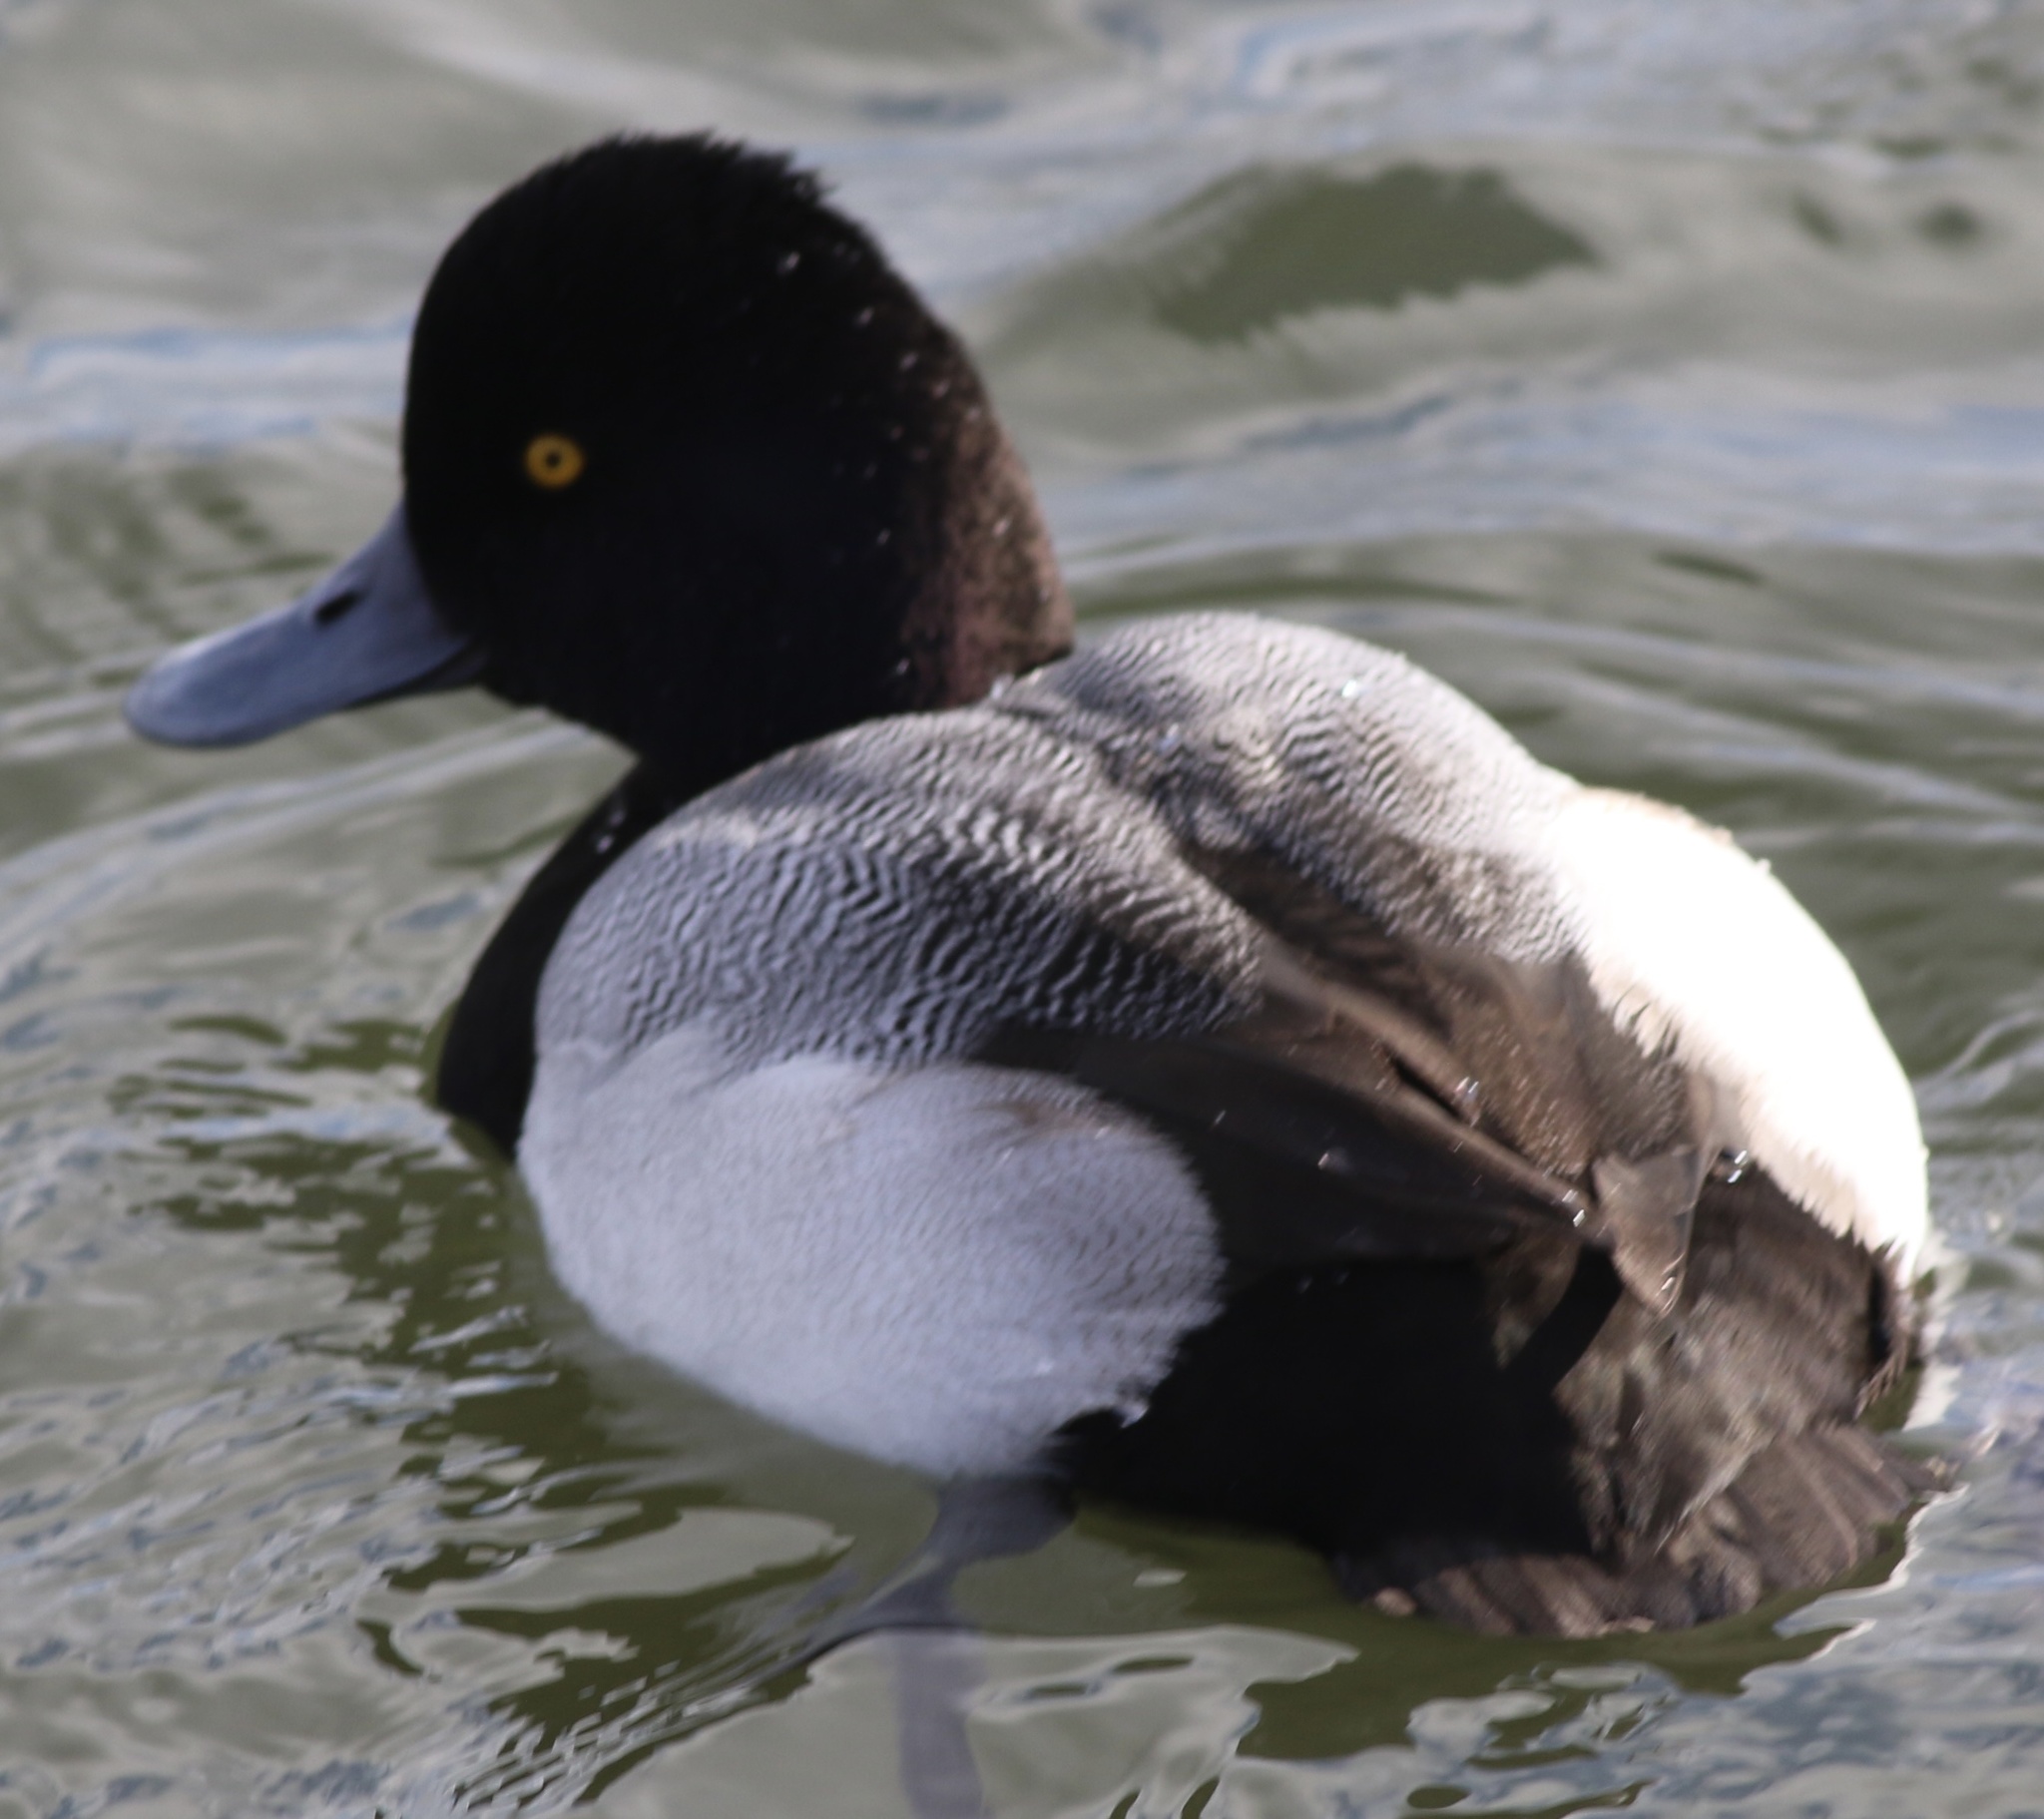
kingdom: Animalia
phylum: Chordata
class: Aves
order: Anseriformes
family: Anatidae
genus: Aythya
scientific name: Aythya affinis
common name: Lesser scaup
